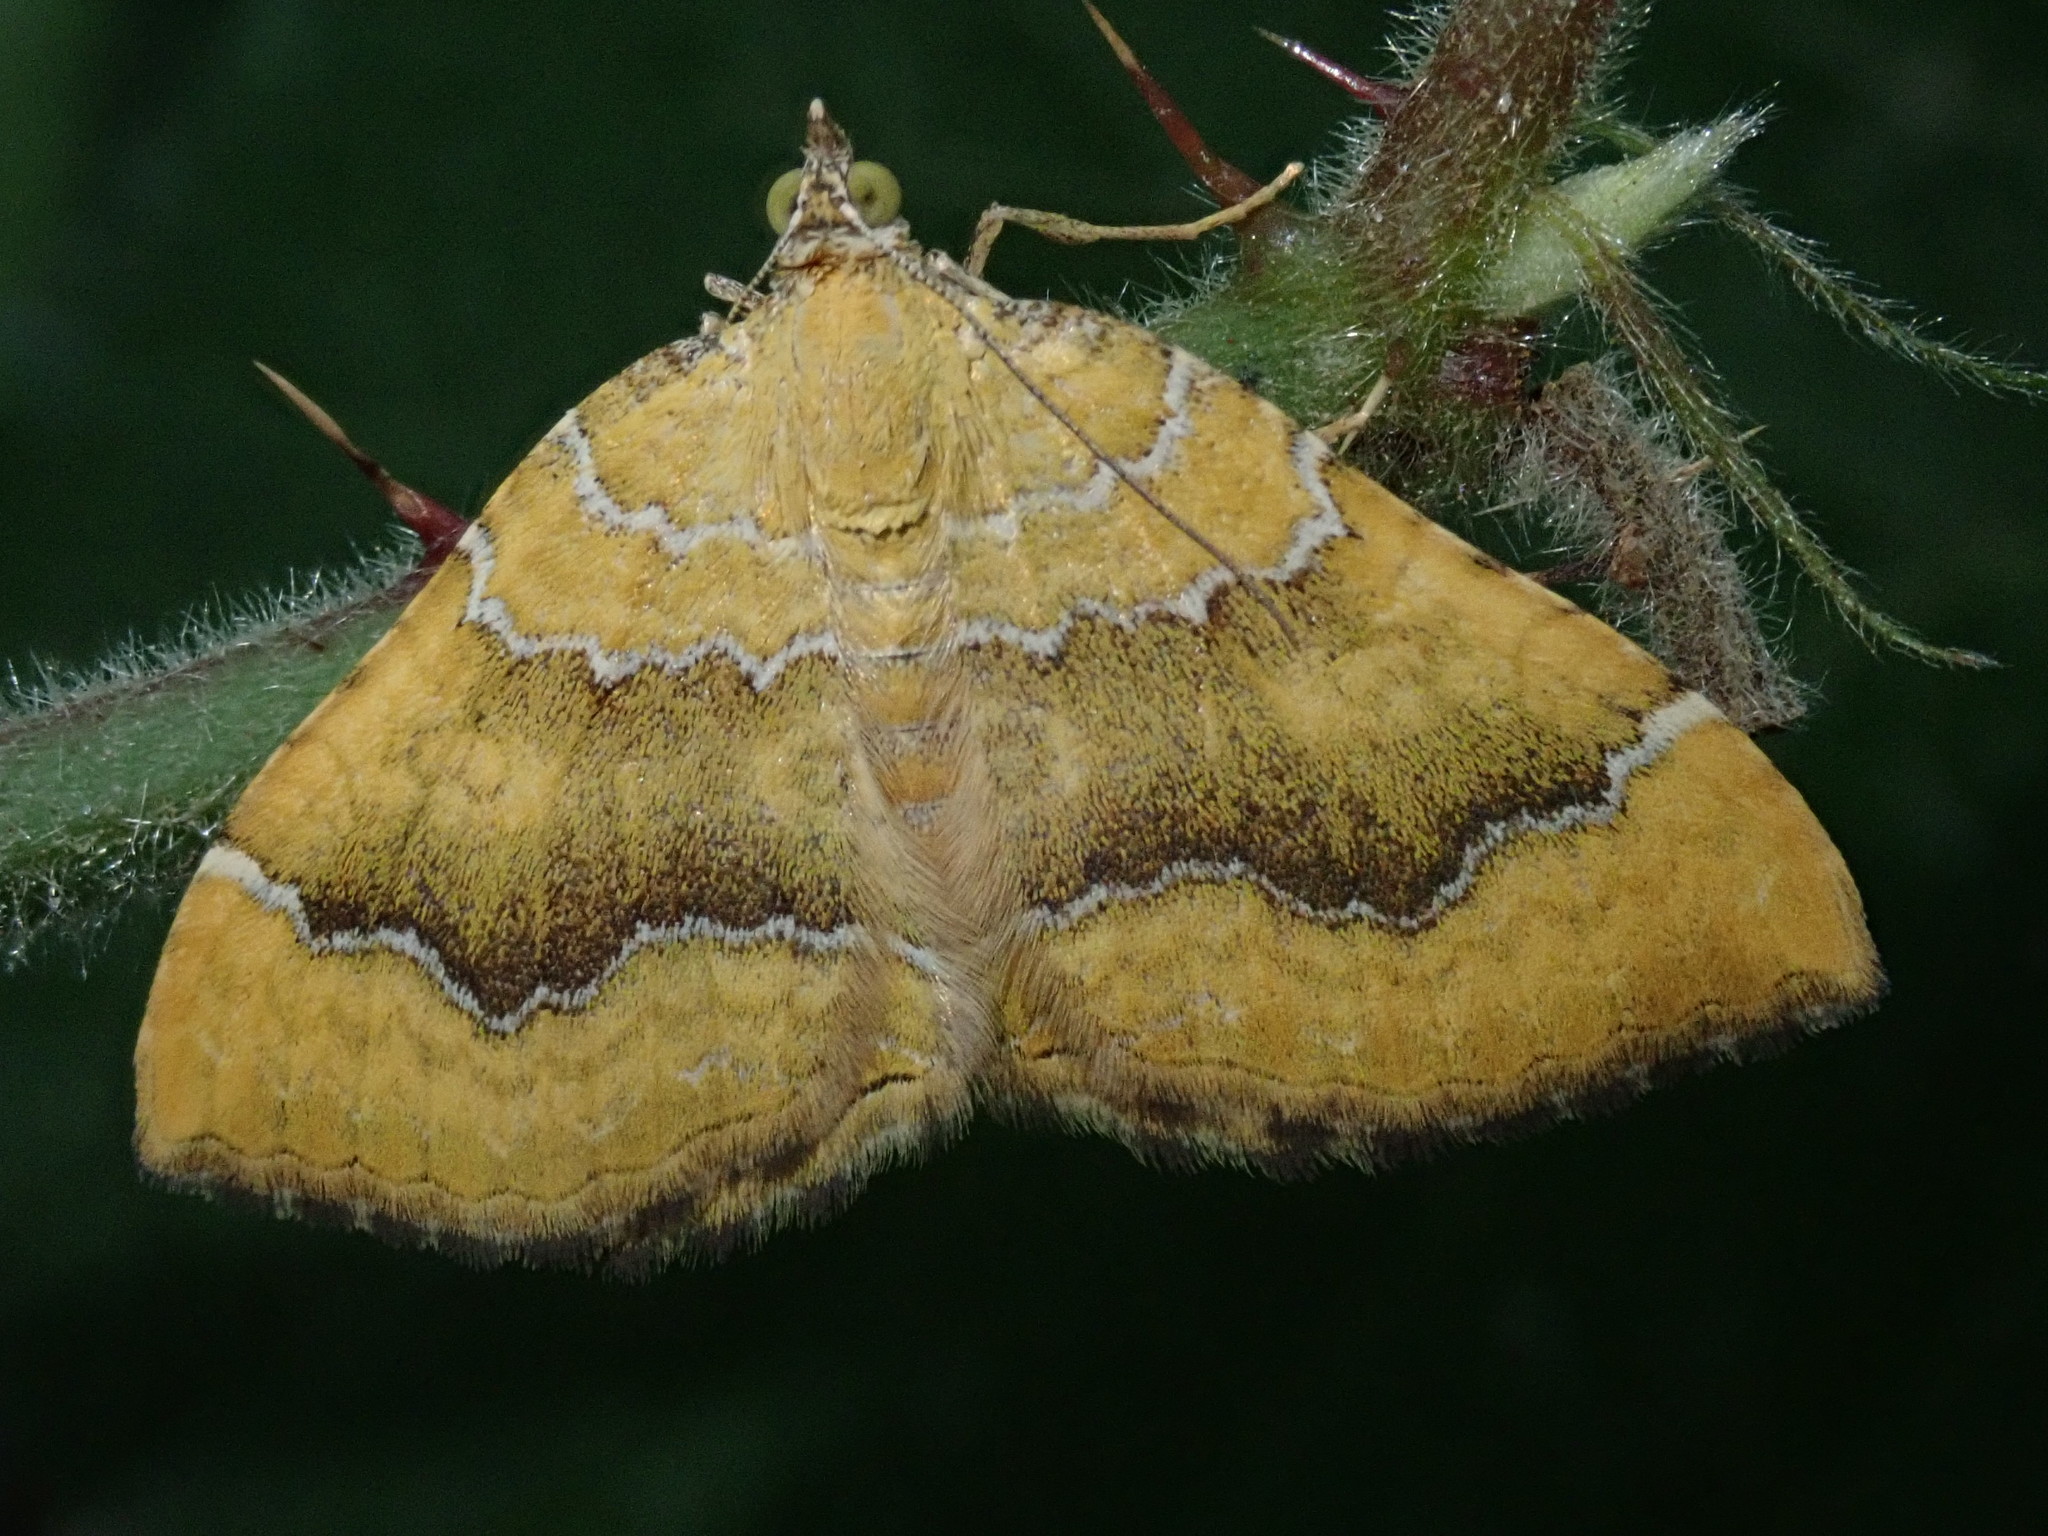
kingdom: Animalia
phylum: Arthropoda
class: Insecta
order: Lepidoptera
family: Geometridae
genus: Camptogramma
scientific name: Camptogramma bilineata
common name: Yellow shell
